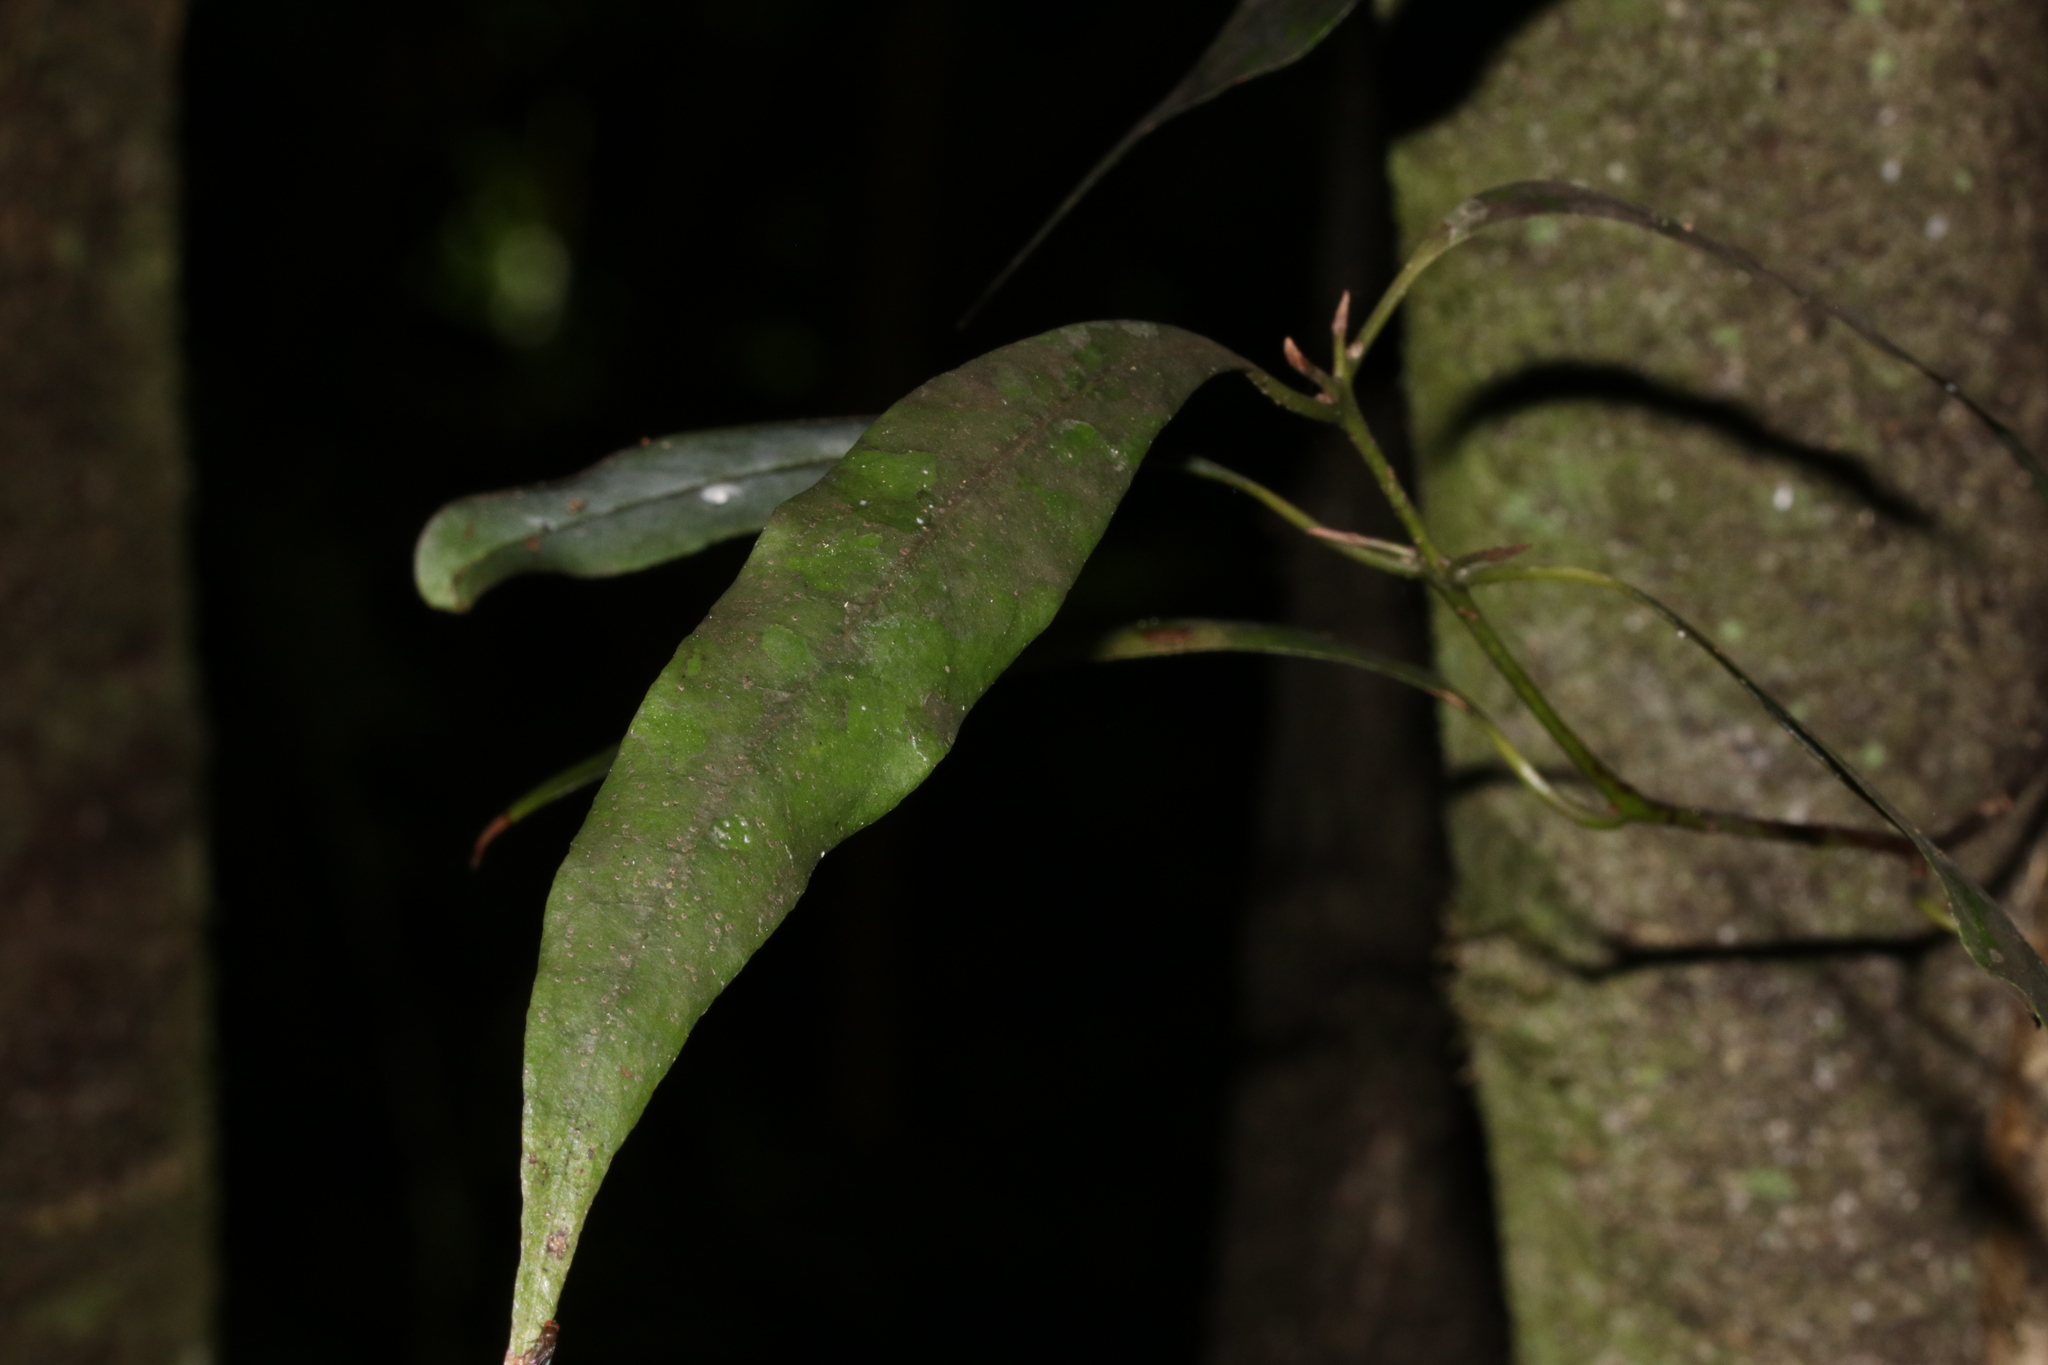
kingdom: Plantae
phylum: Tracheophyta
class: Magnoliopsida
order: Laurales
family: Lauraceae
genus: Beilschmiedia
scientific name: Beilschmiedia tawa
